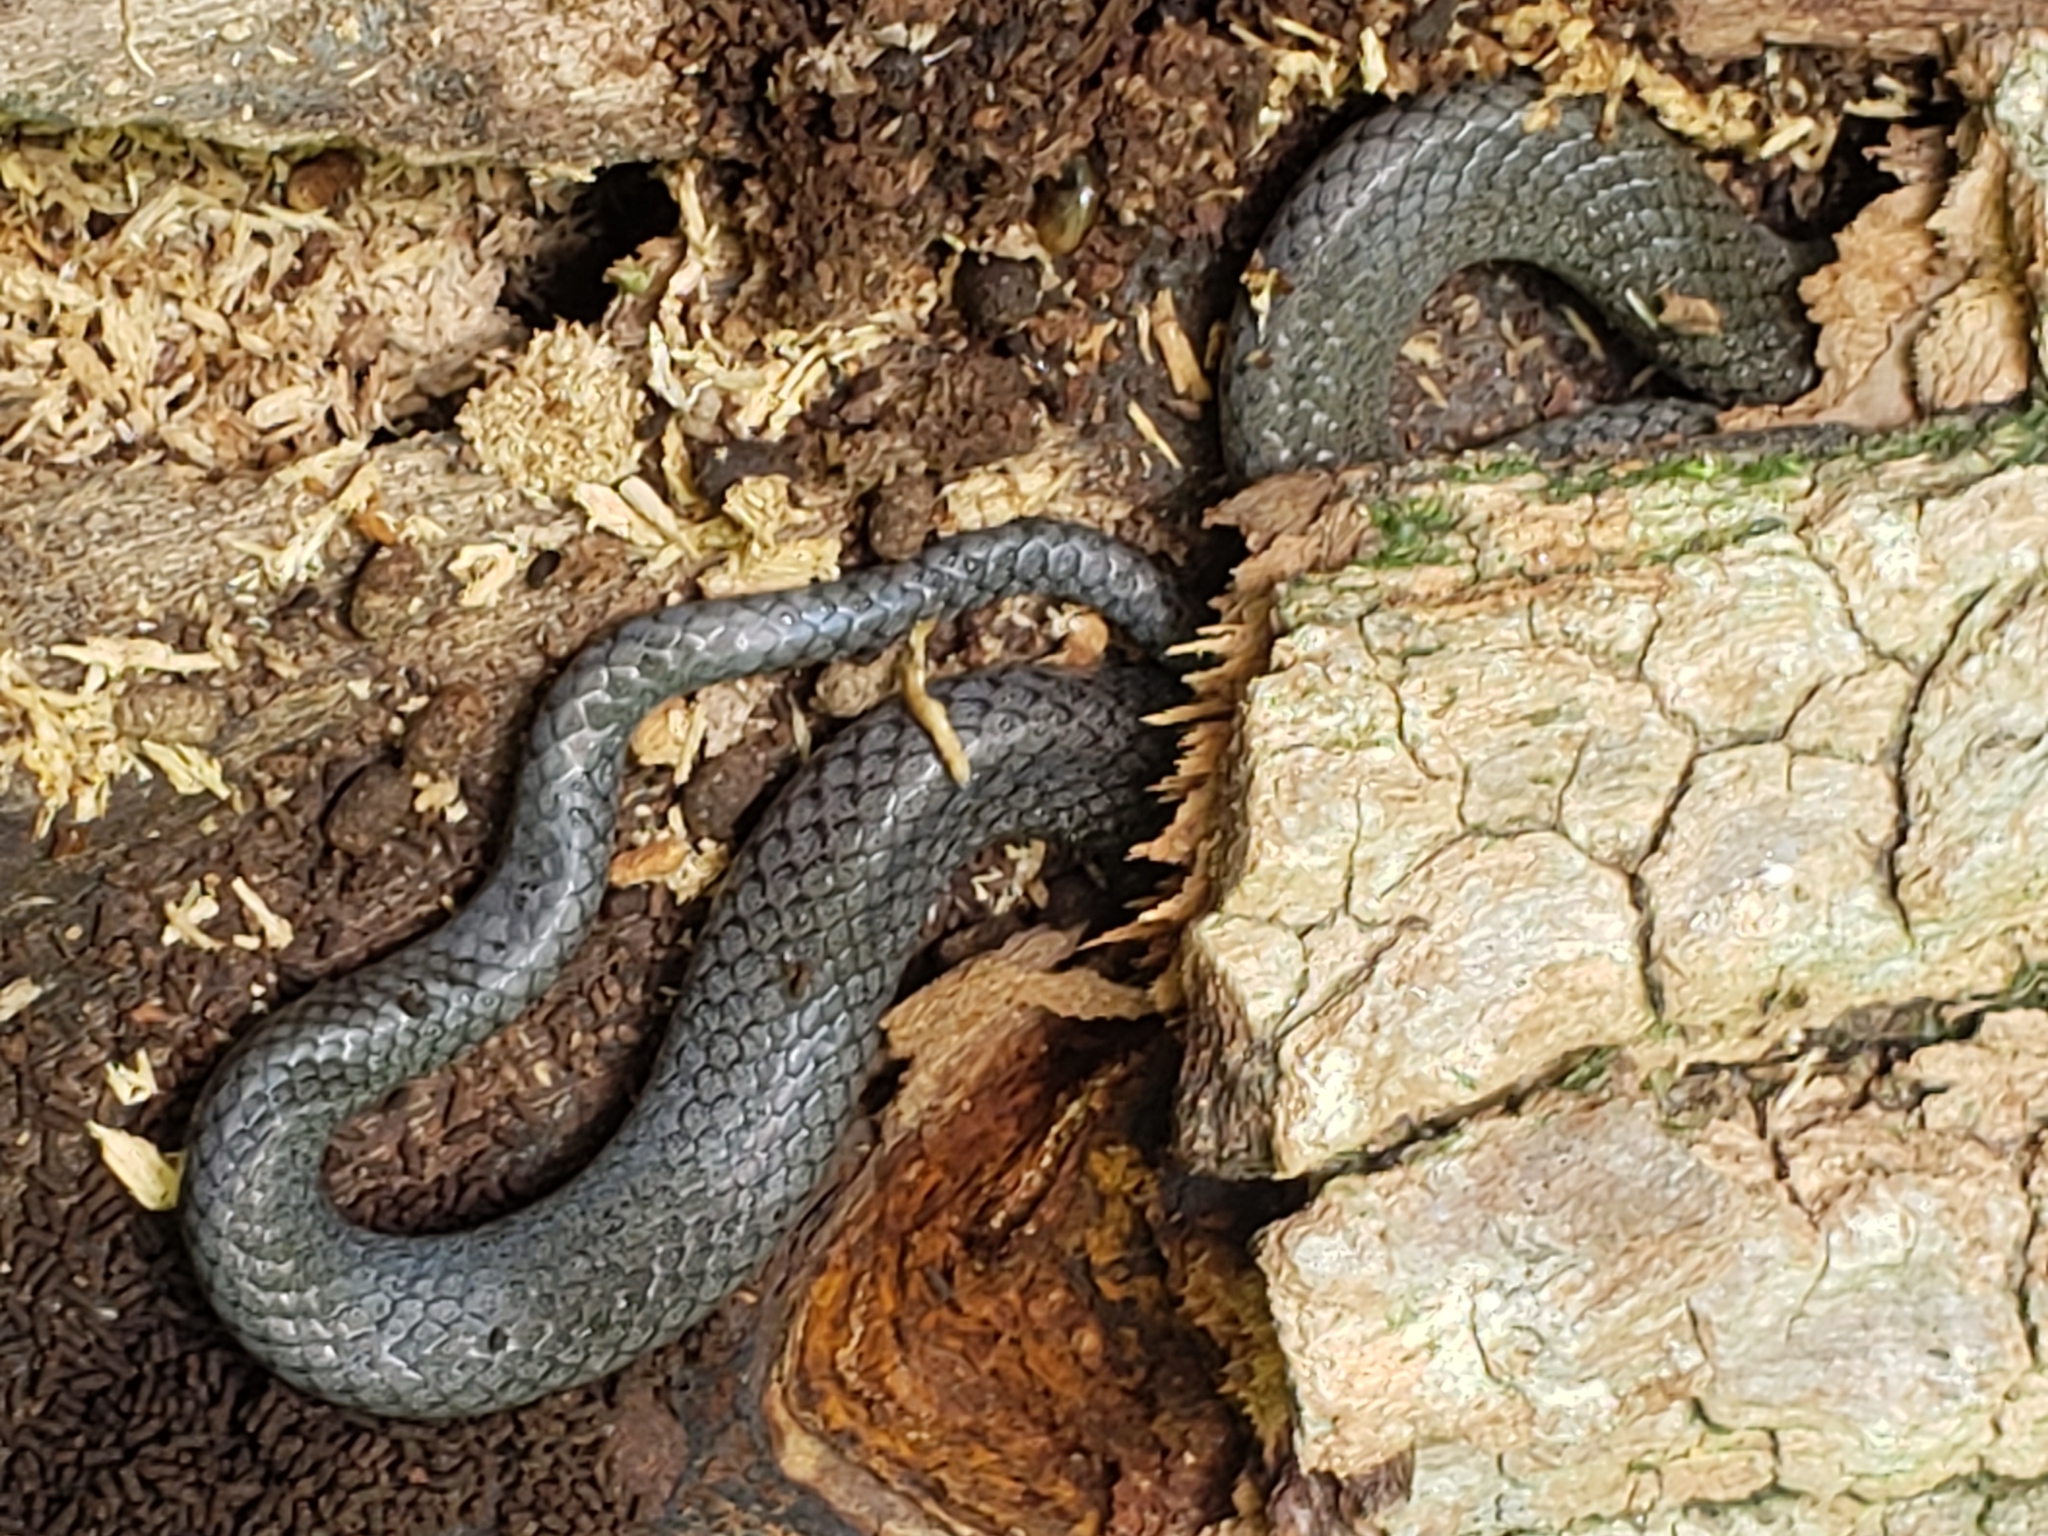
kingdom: Animalia
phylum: Chordata
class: Squamata
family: Colubridae
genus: Diadophis
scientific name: Diadophis punctatus
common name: Ringneck snake
